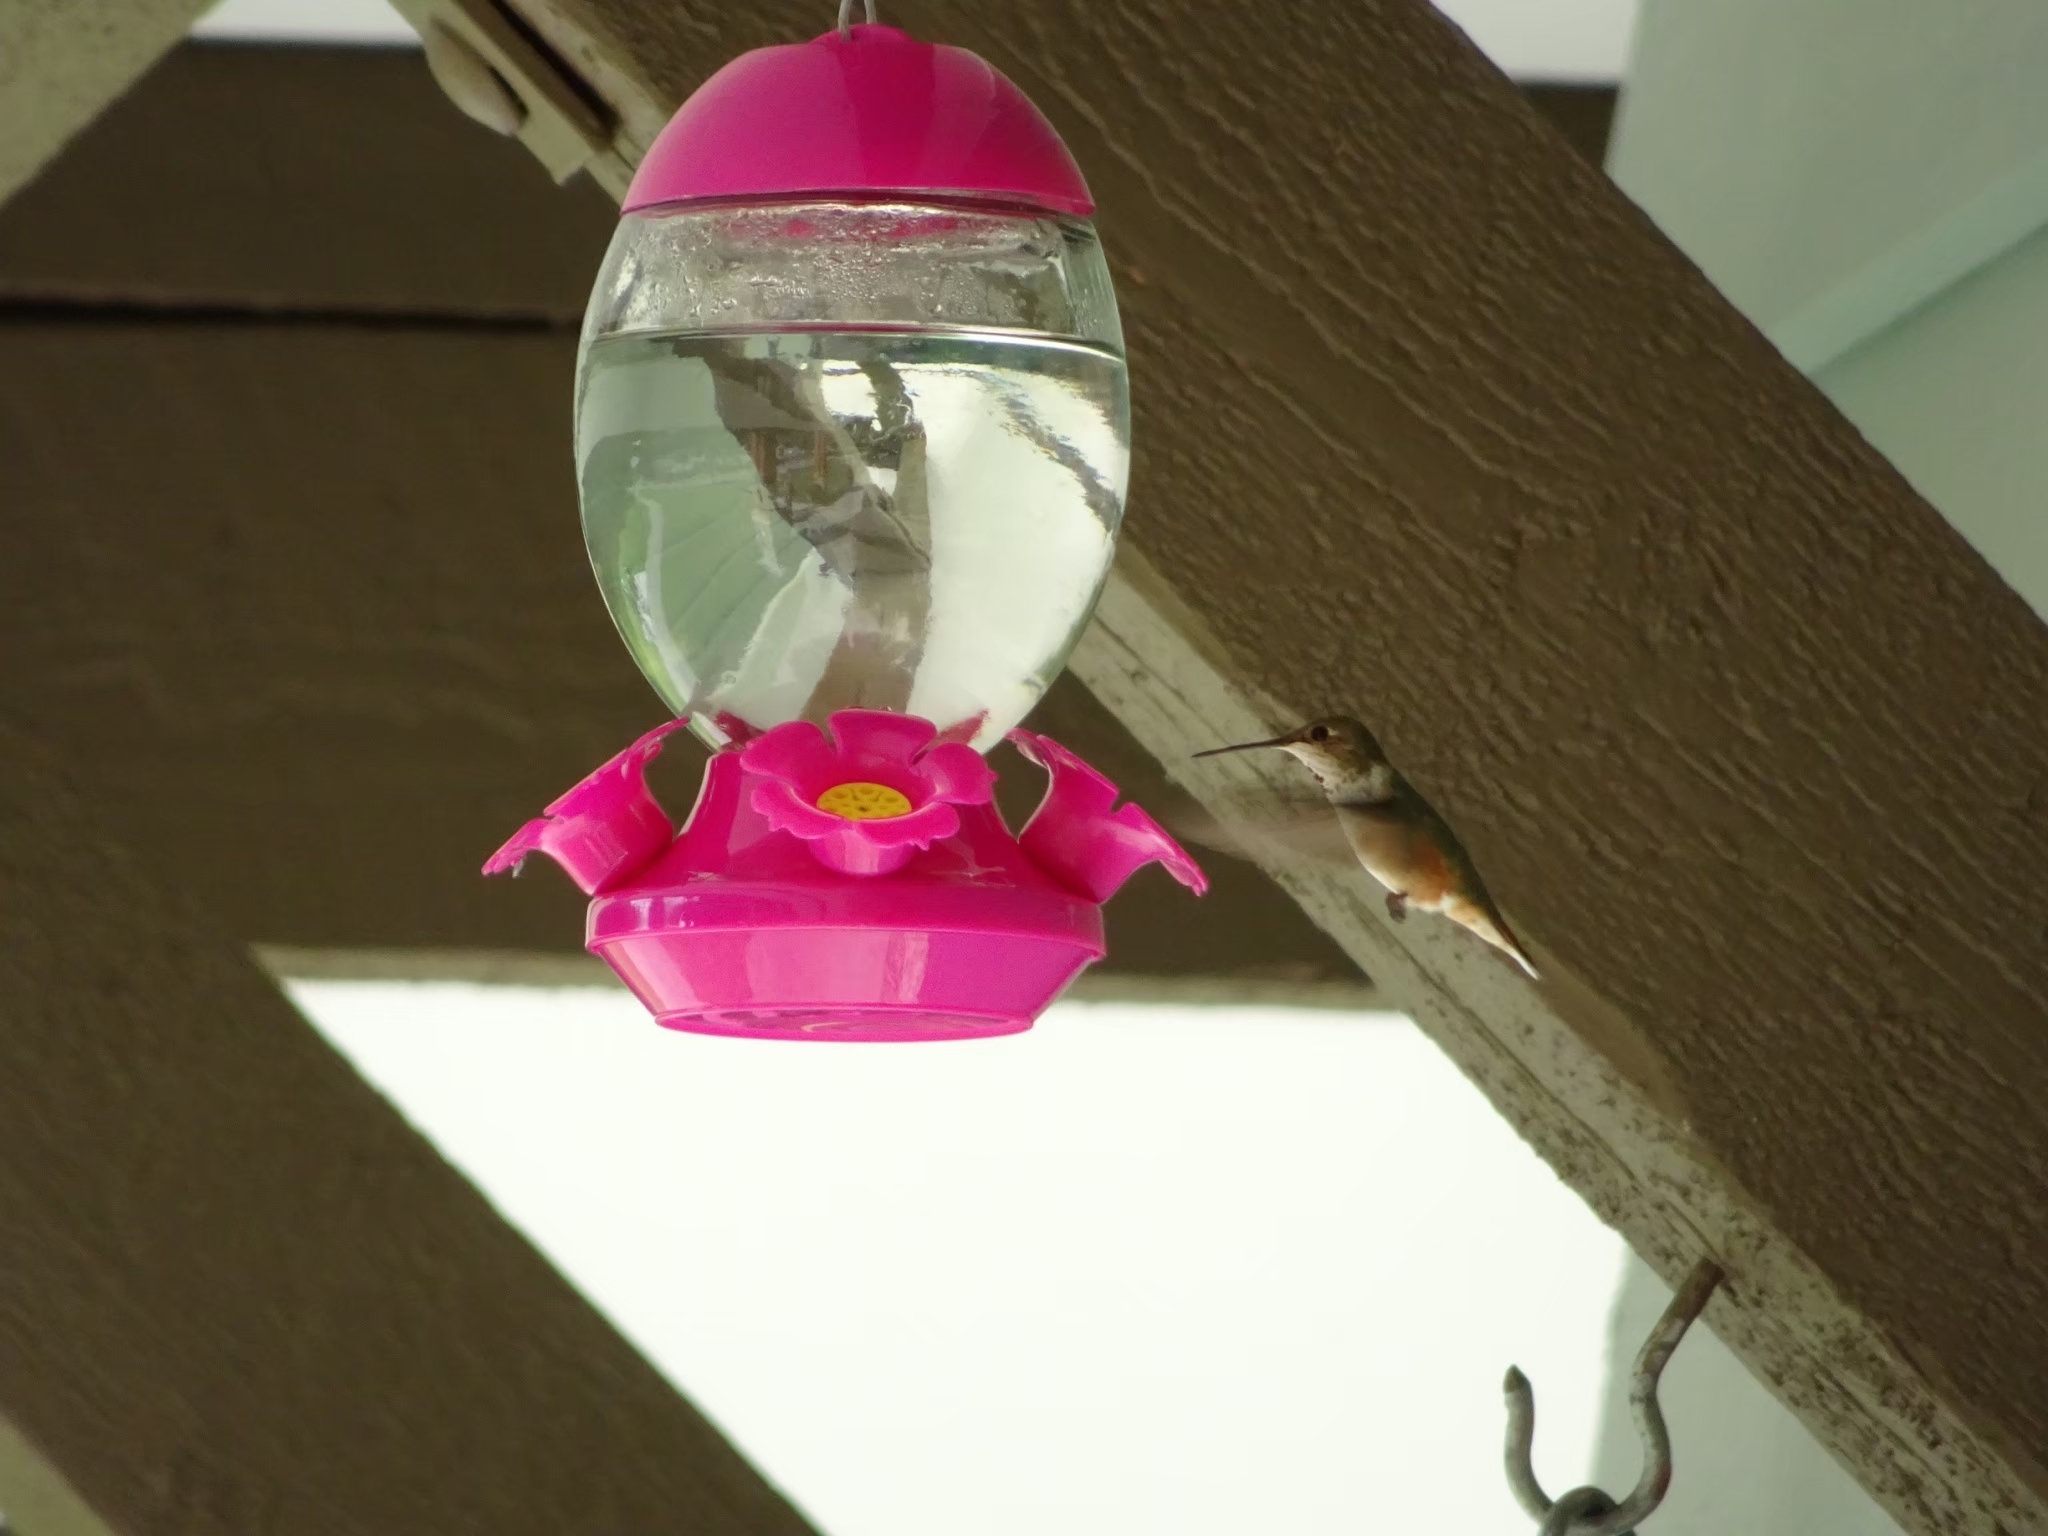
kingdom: Animalia
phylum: Chordata
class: Aves
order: Apodiformes
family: Trochilidae
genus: Selasphorus
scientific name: Selasphorus rufus
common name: Rufous hummingbird
